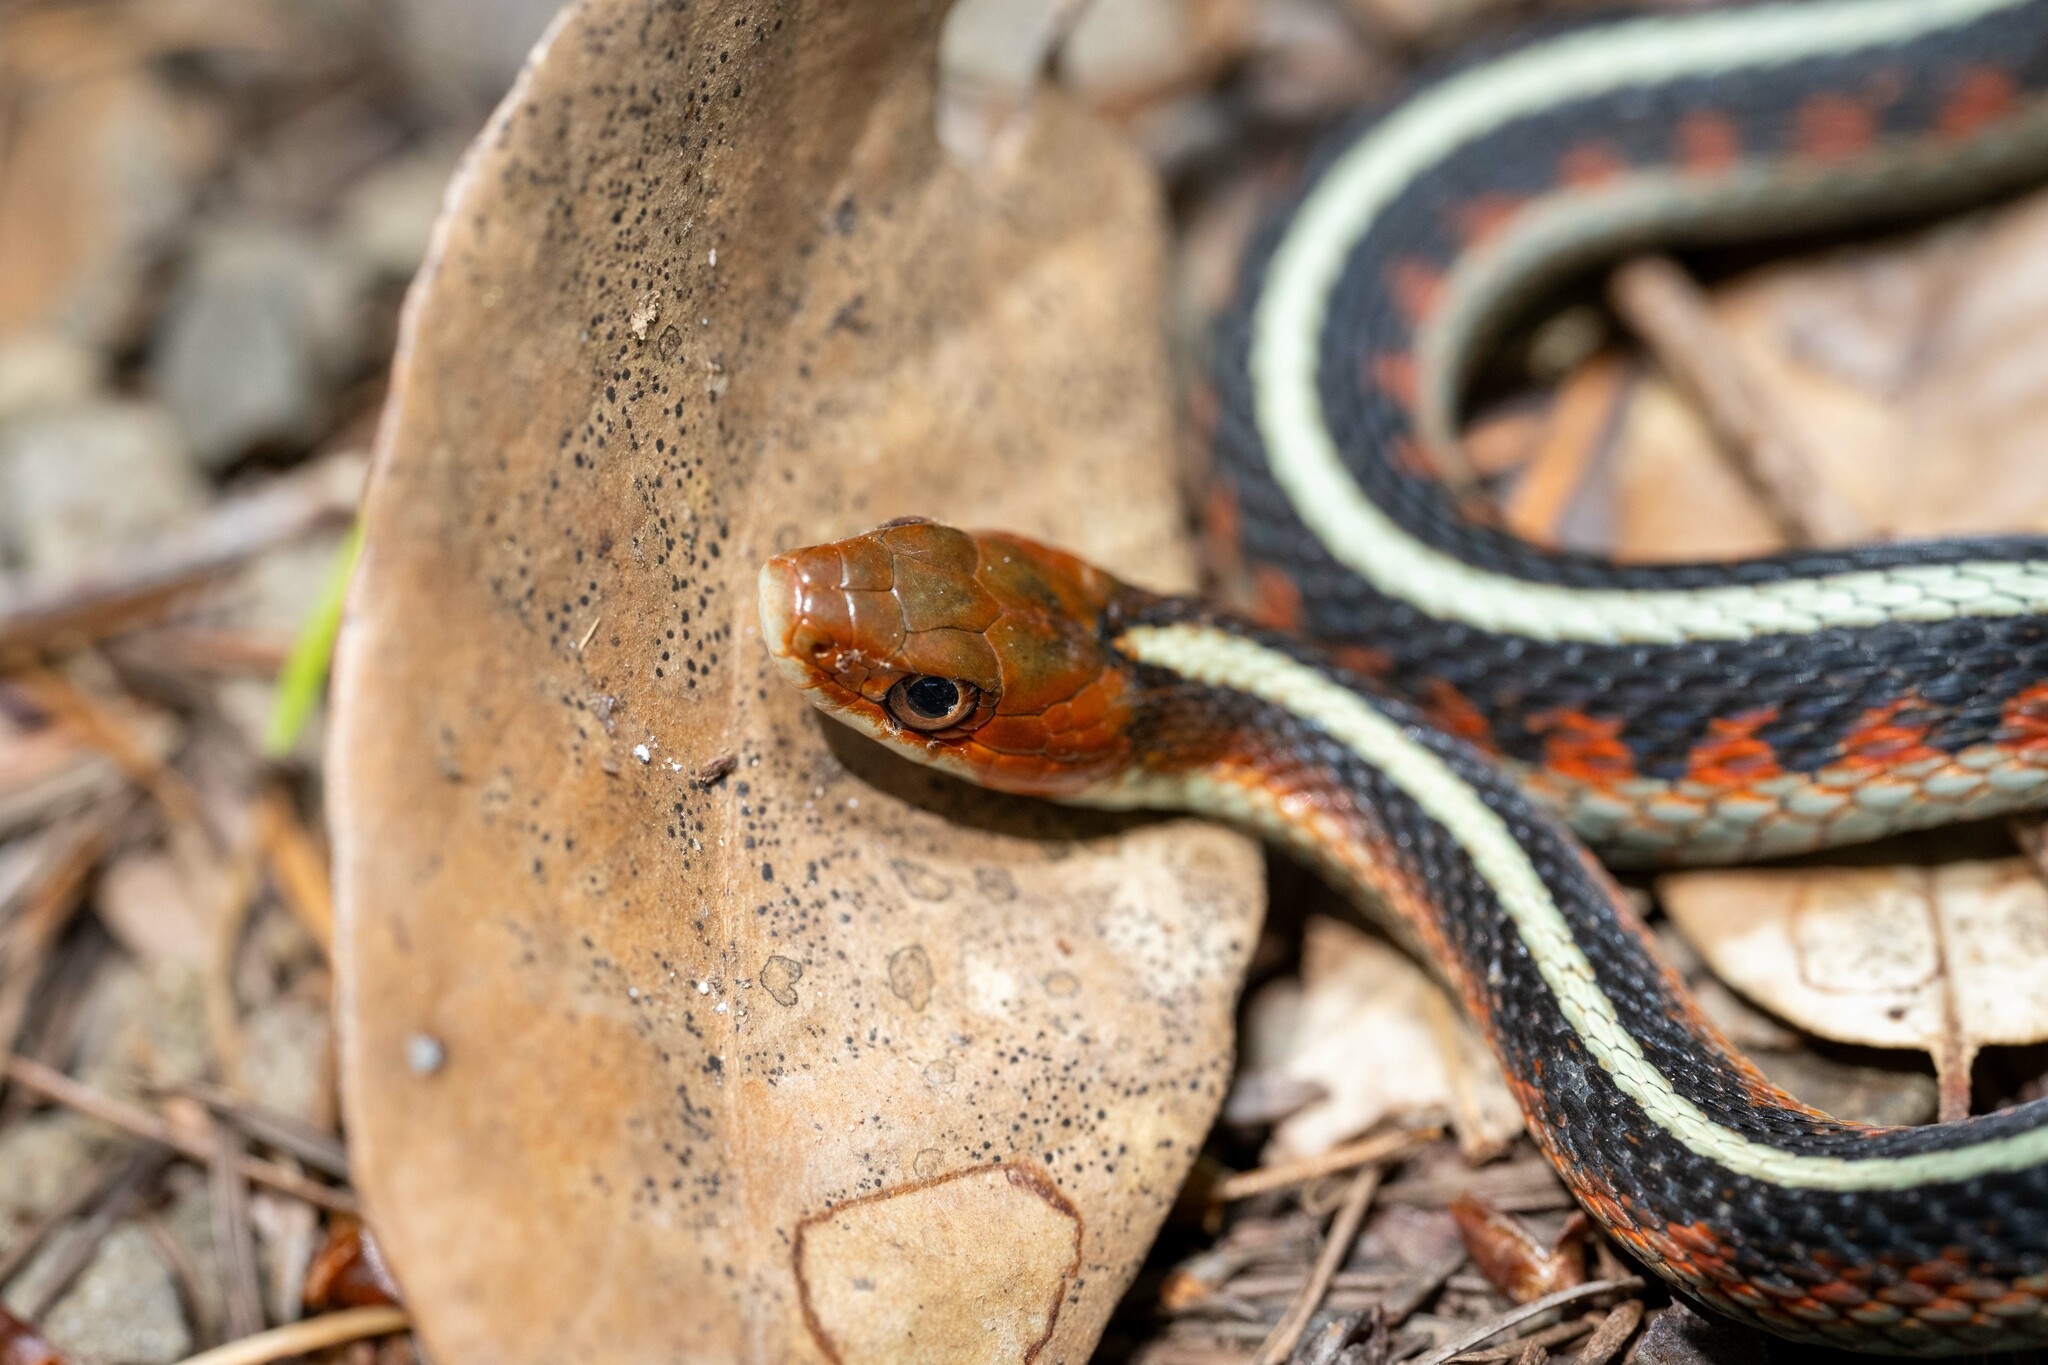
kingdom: Animalia
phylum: Chordata
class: Squamata
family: Colubridae
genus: Thamnophis
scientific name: Thamnophis sirtalis
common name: Common garter snake
